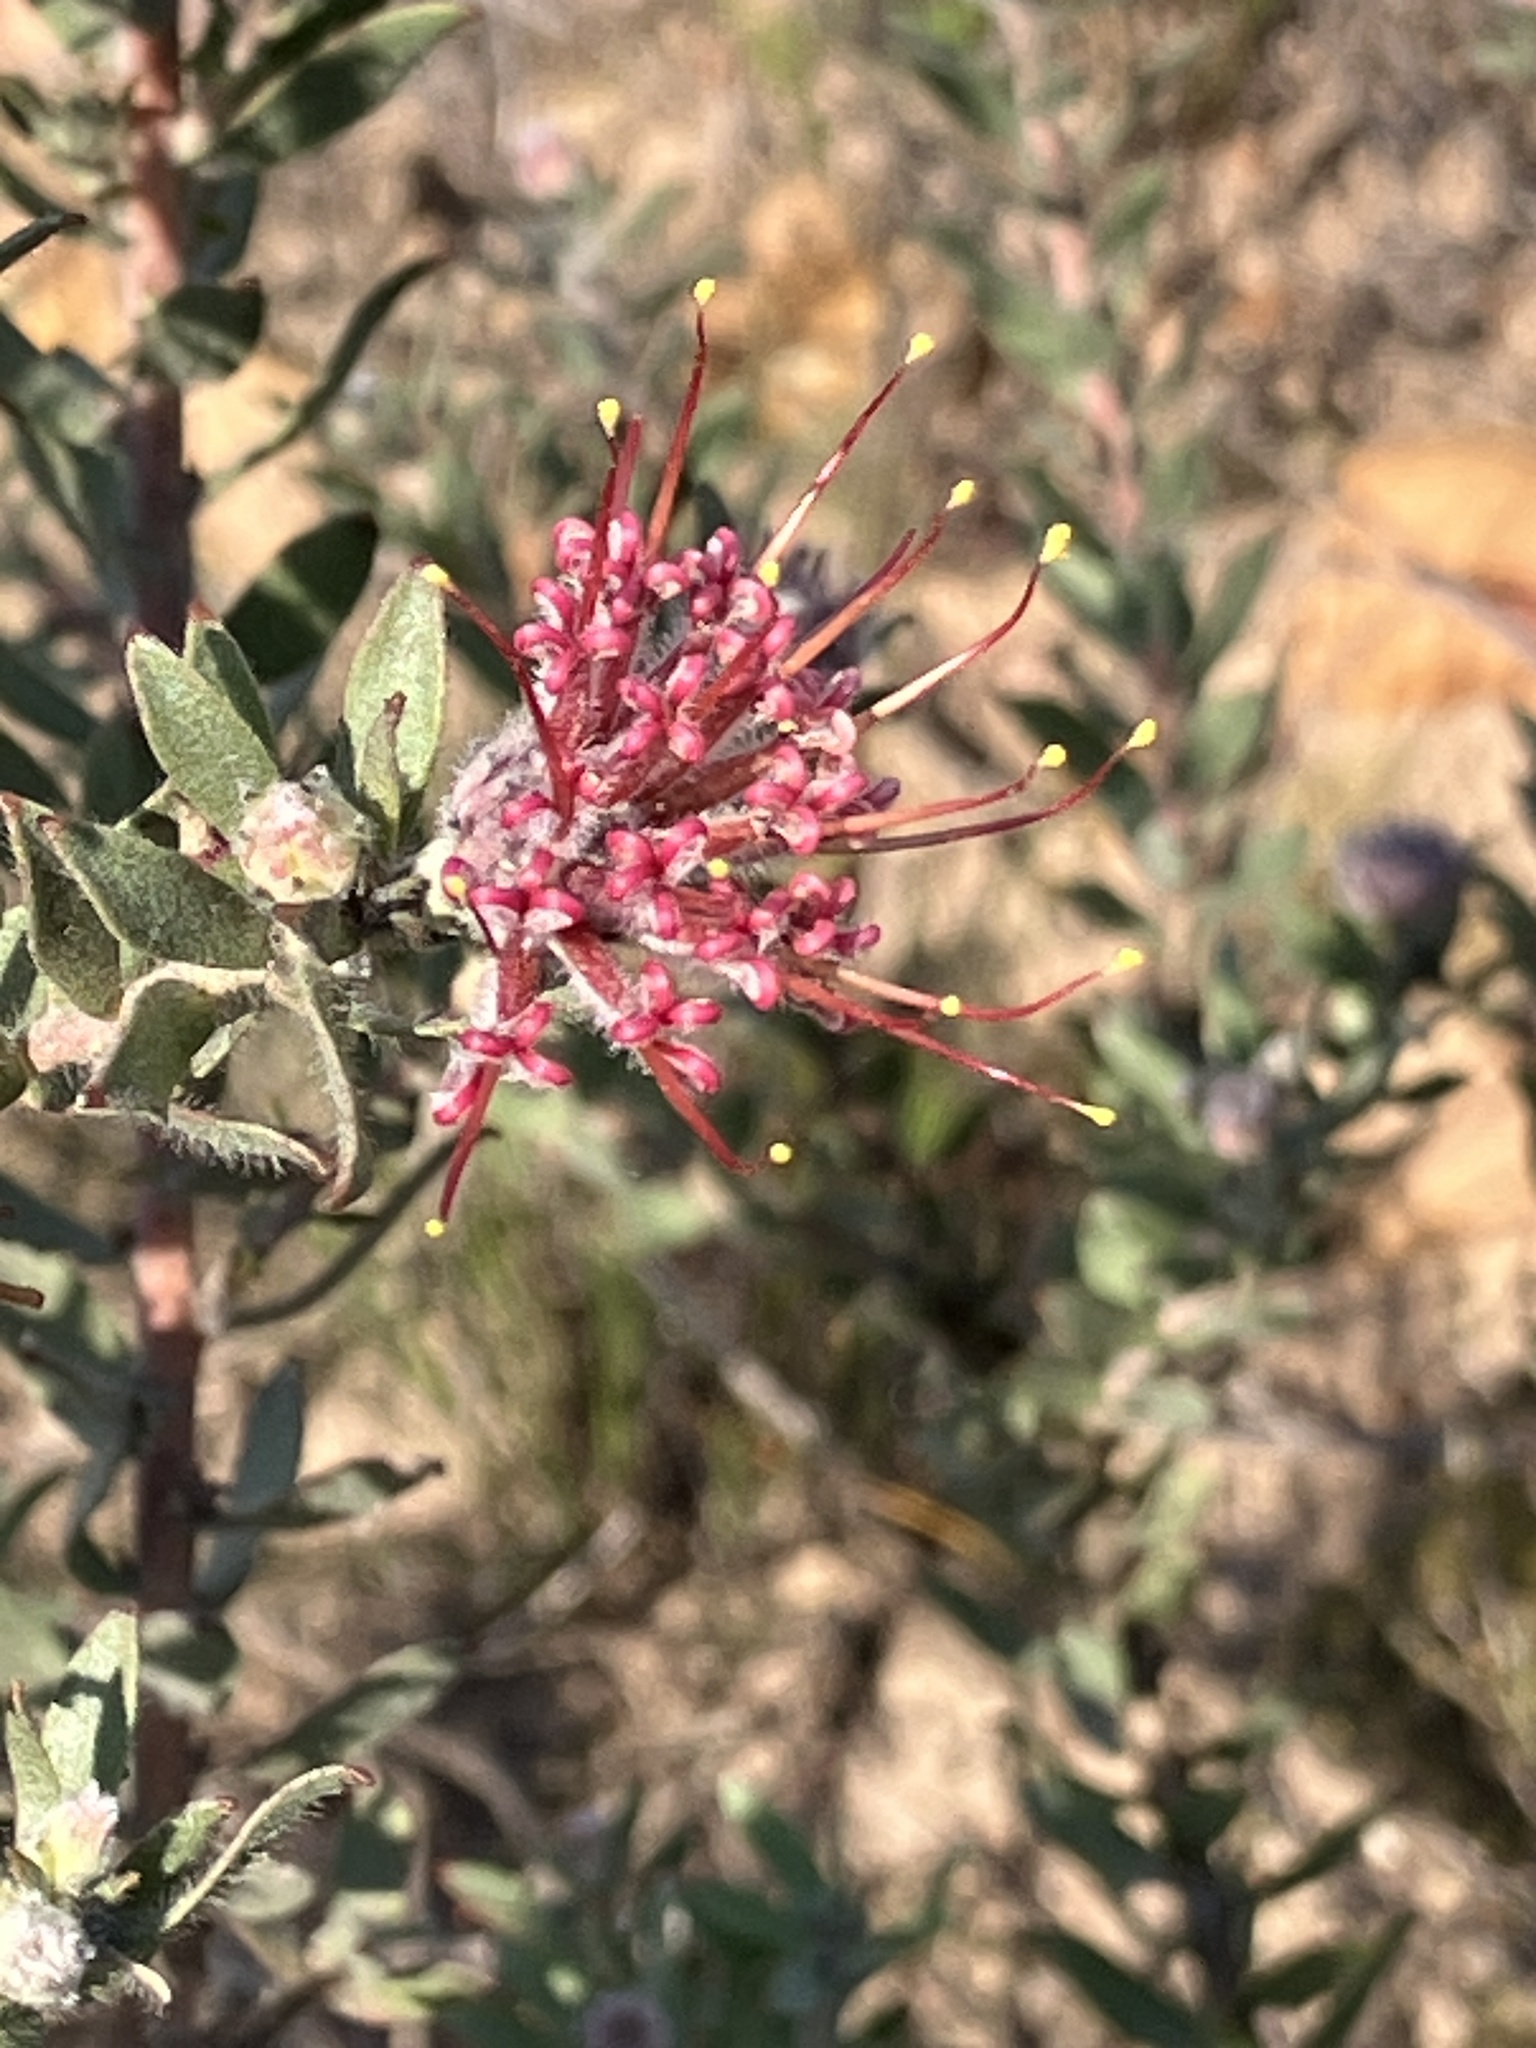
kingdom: Plantae
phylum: Tracheophyta
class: Magnoliopsida
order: Proteales
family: Proteaceae
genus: Leucospermum
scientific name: Leucospermum calligerum
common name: Arid pincushion
